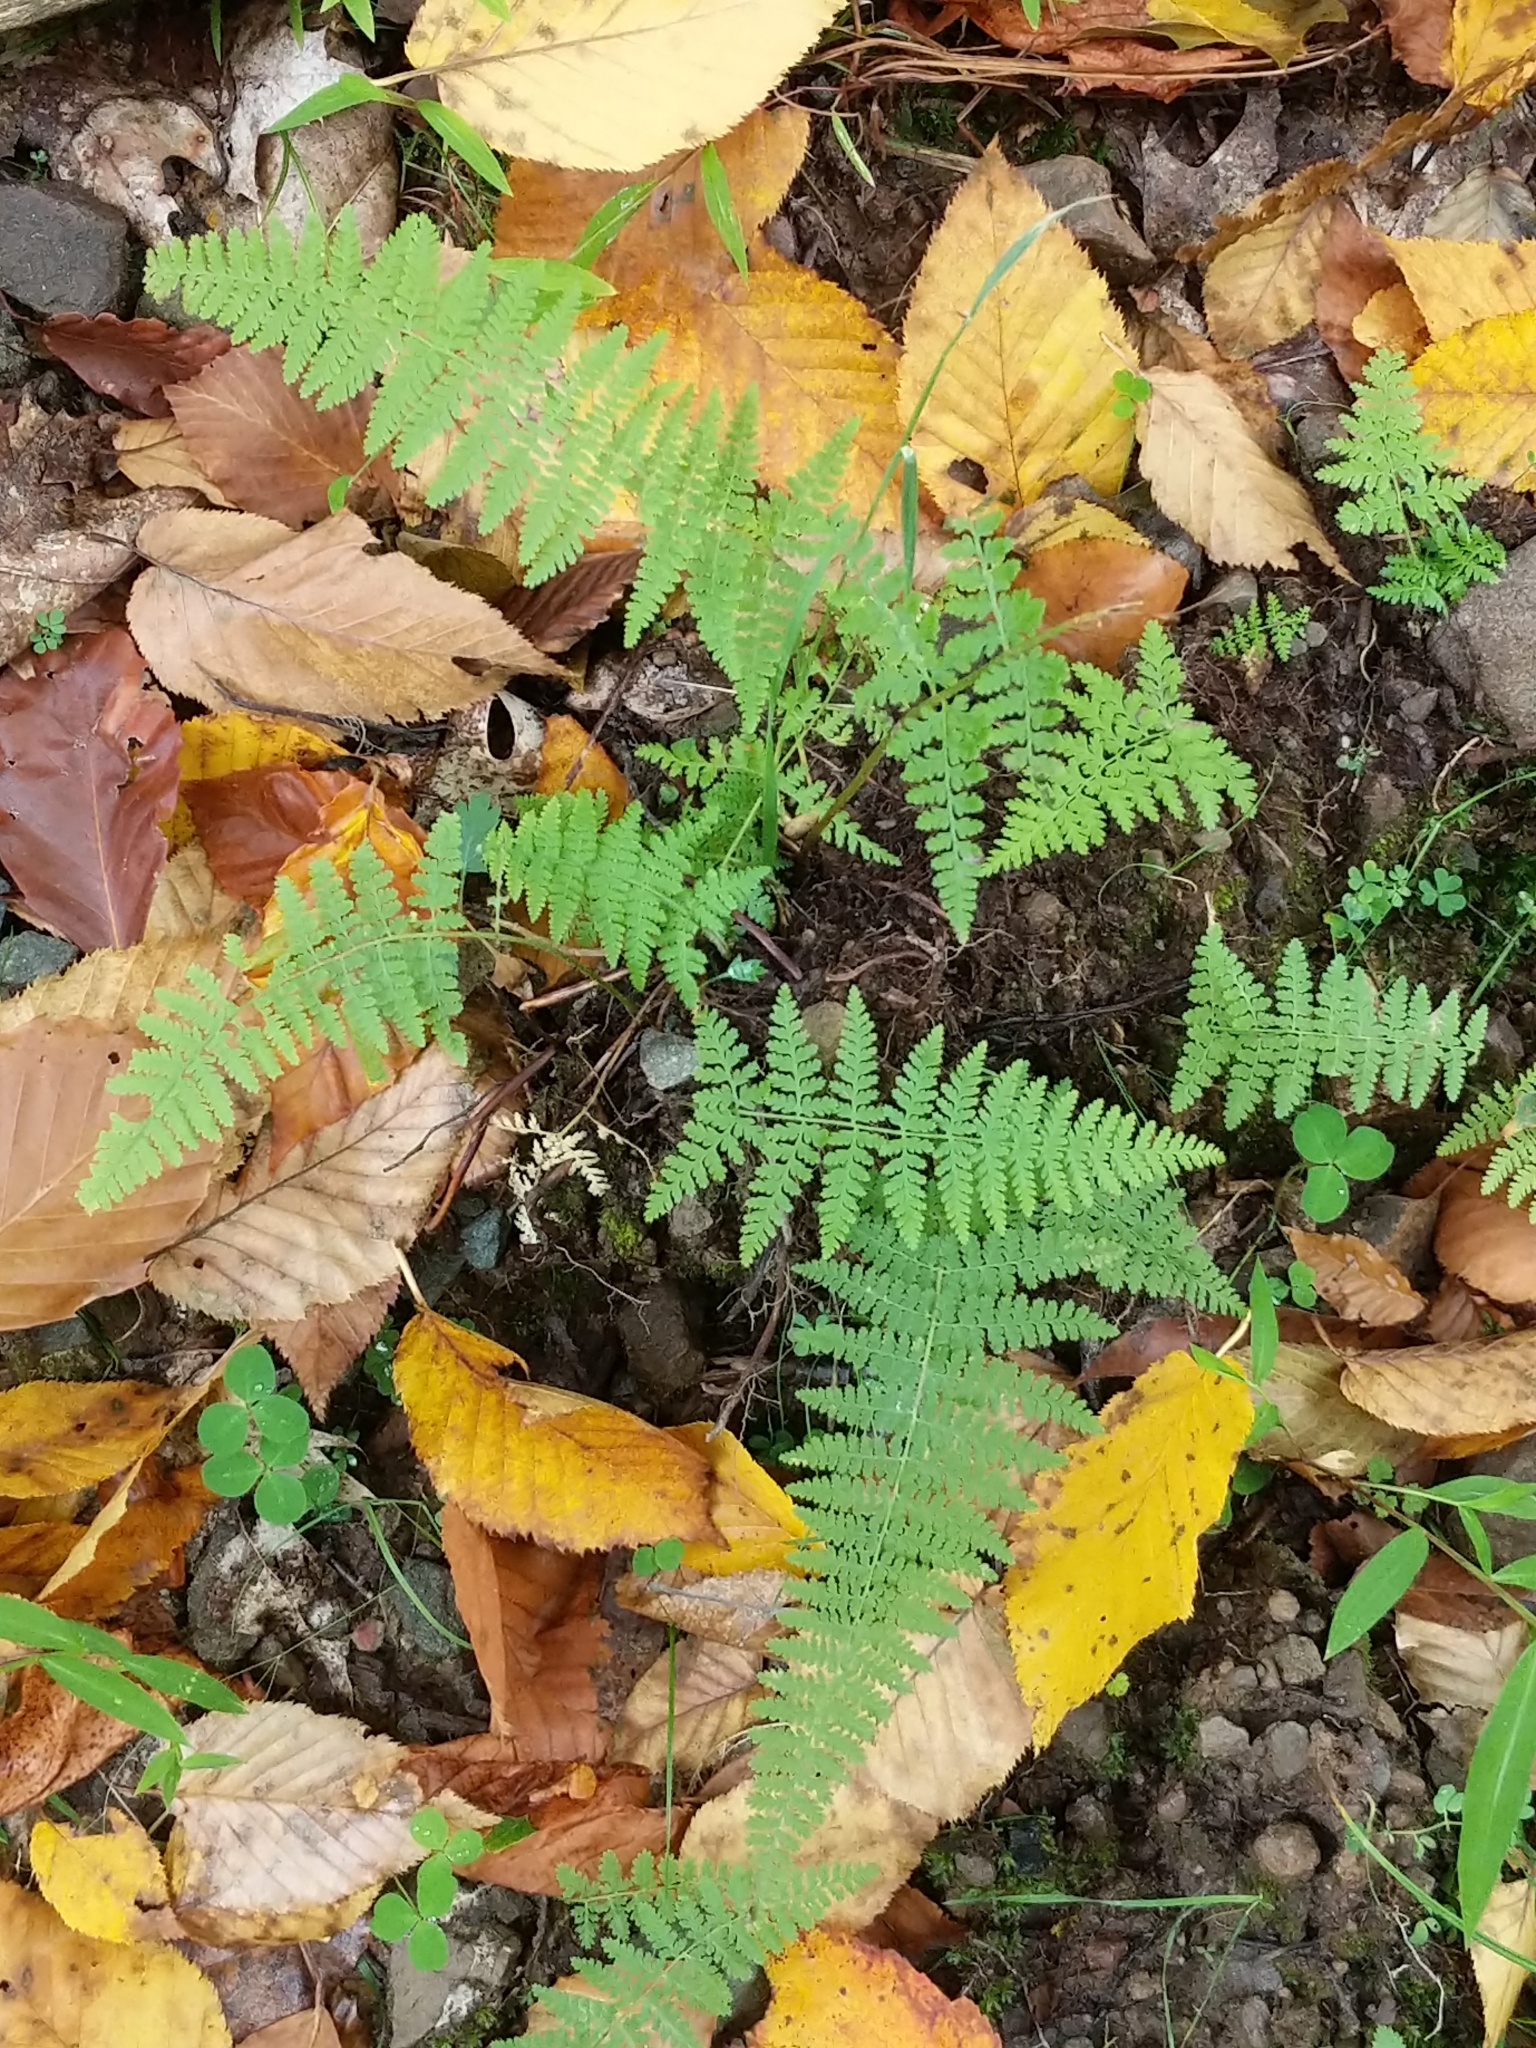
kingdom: Plantae
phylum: Tracheophyta
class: Polypodiopsida
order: Polypodiales
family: Dennstaedtiaceae
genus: Sitobolium
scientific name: Sitobolium punctilobum
